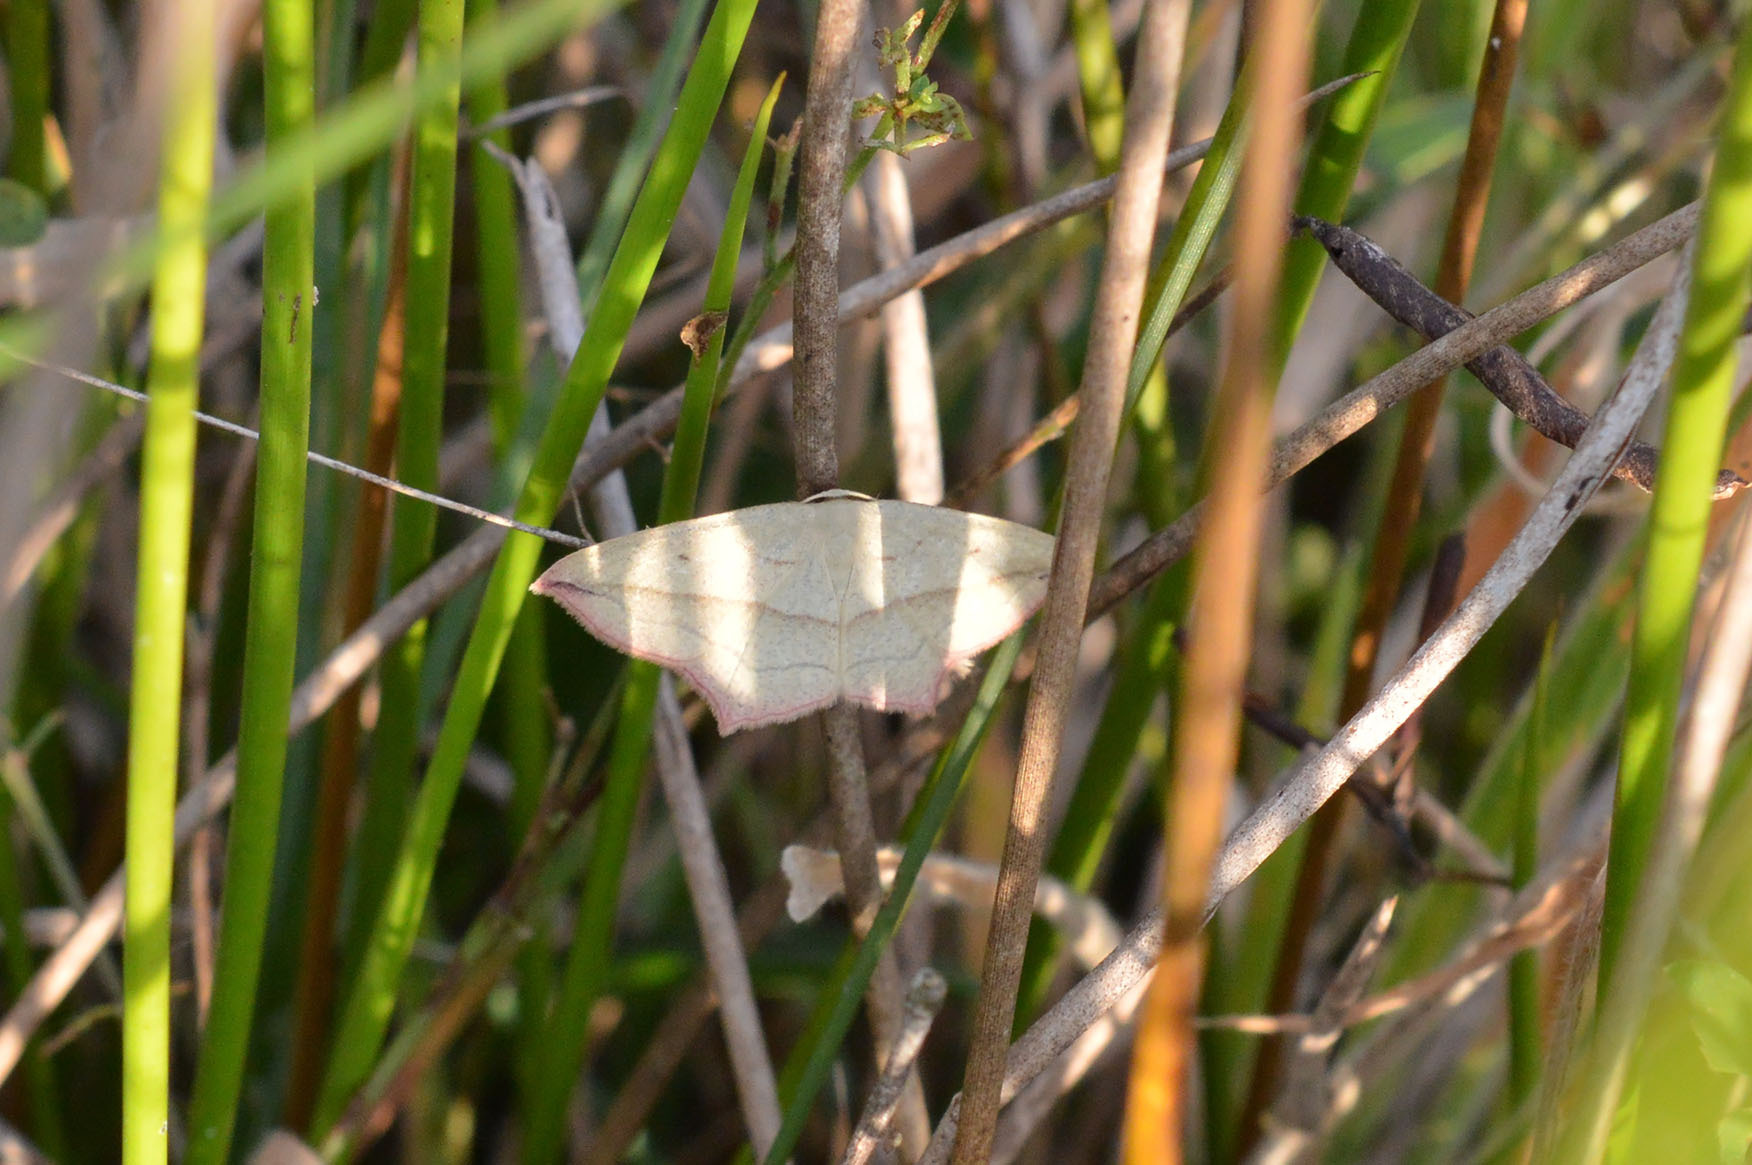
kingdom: Animalia
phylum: Arthropoda
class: Insecta
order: Lepidoptera
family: Geometridae
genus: Timandra
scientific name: Timandra comae
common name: Blood-vein
